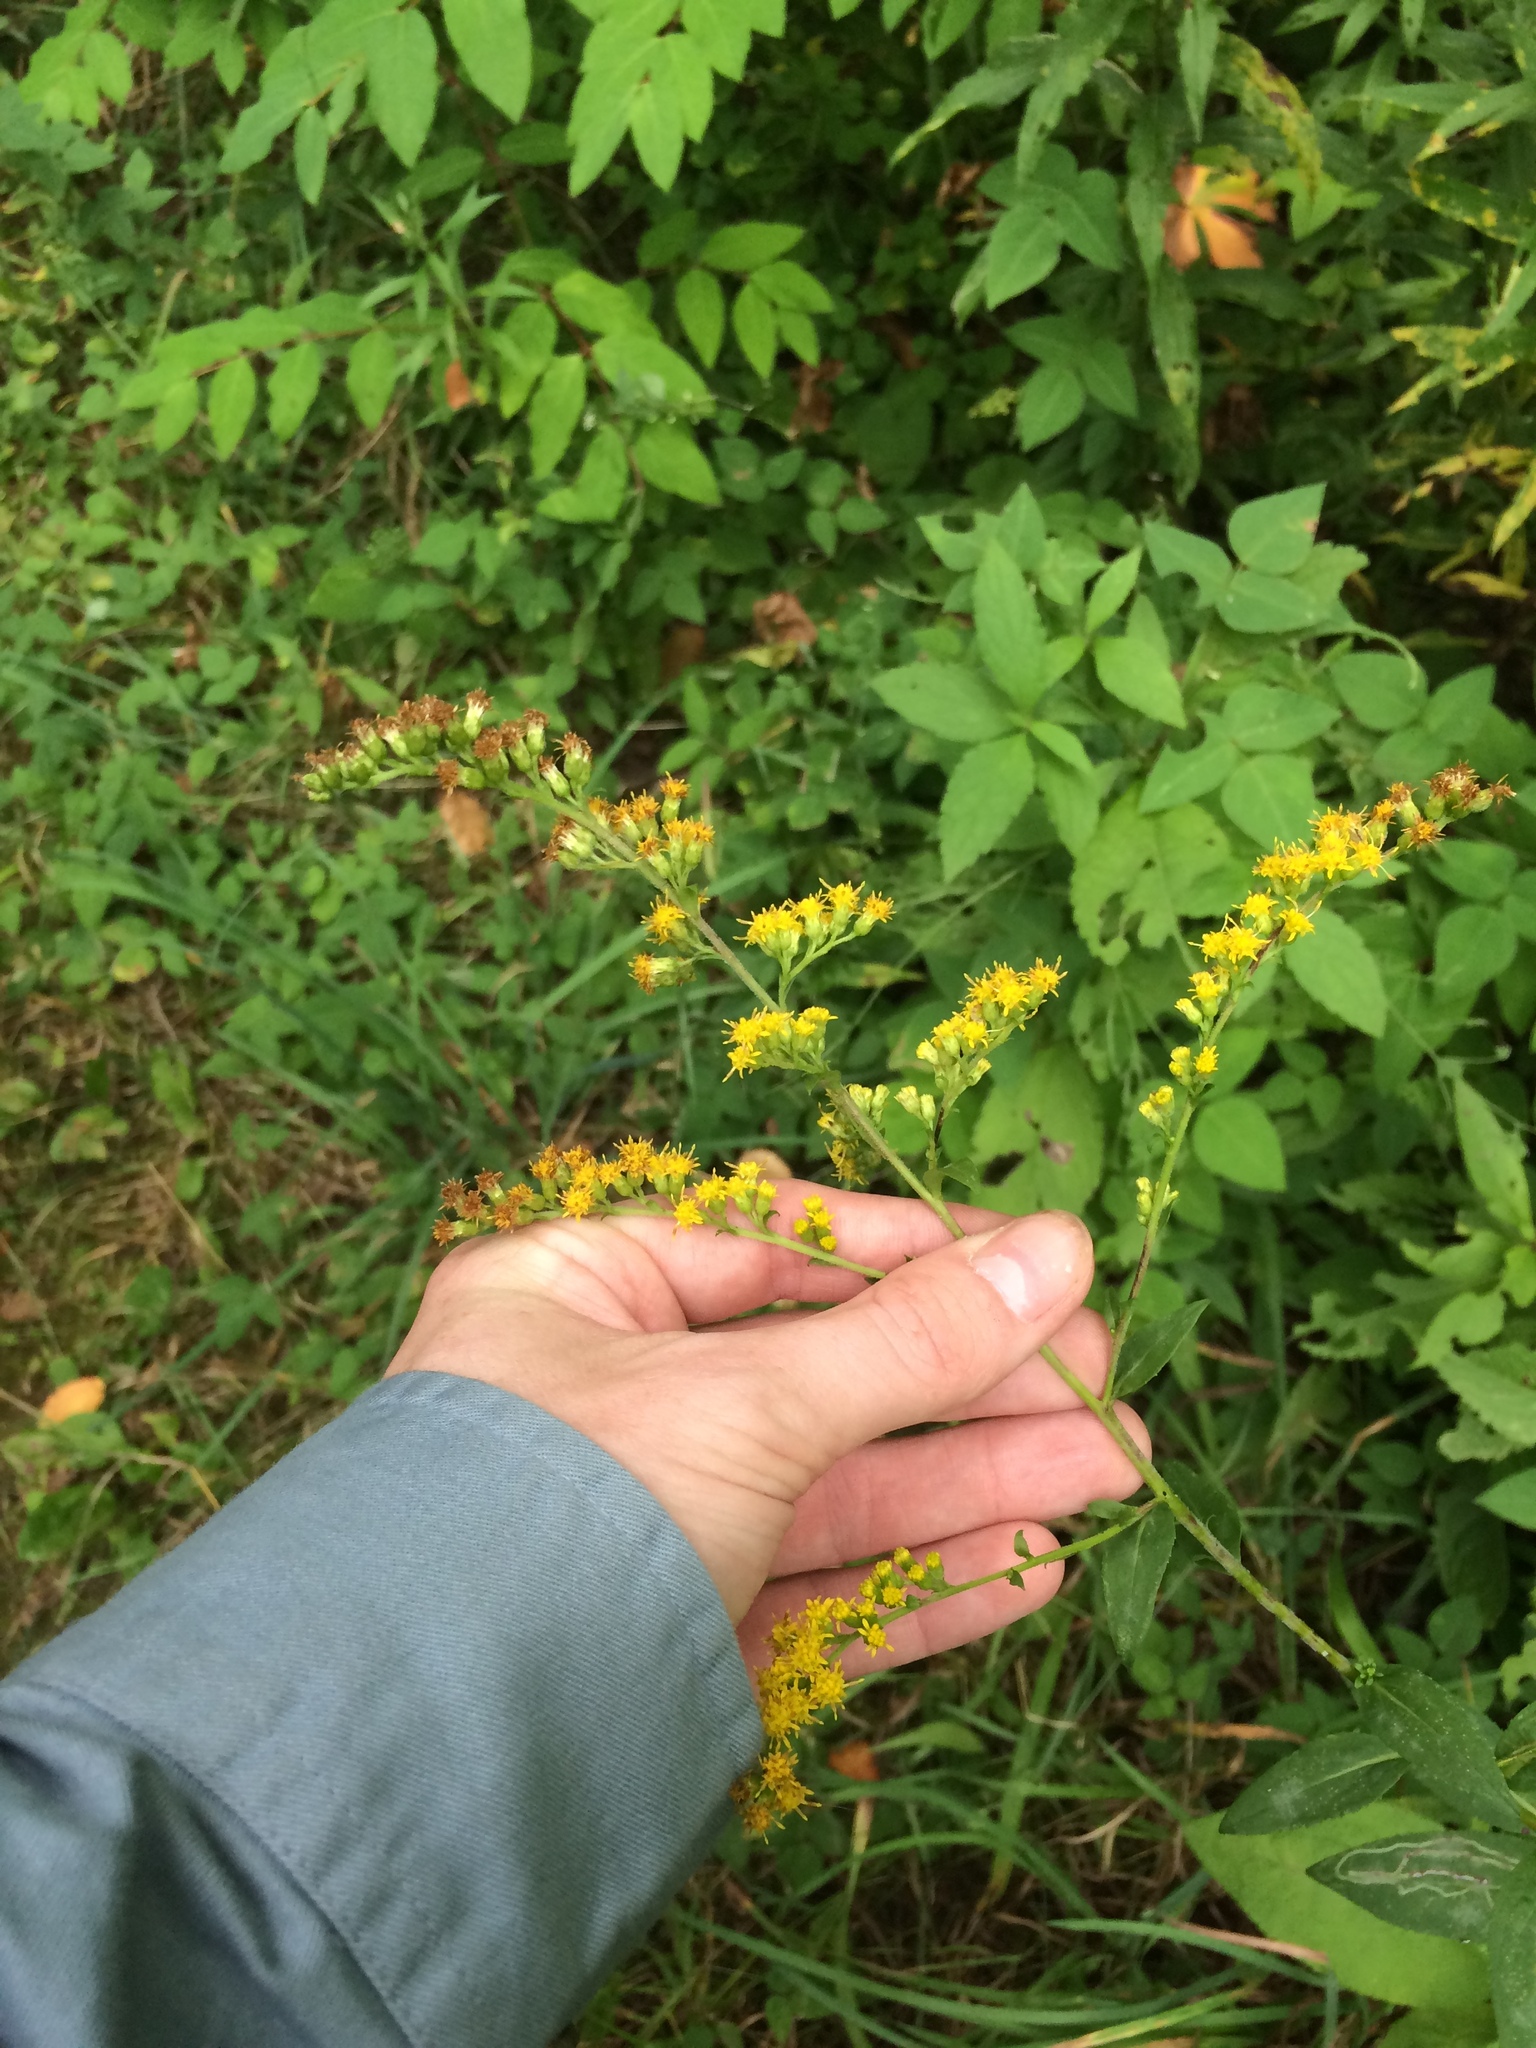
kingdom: Plantae
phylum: Tracheophyta
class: Magnoliopsida
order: Asterales
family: Asteraceae
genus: Solidago
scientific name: Solidago patula
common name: Rough-leaf goldenrod
